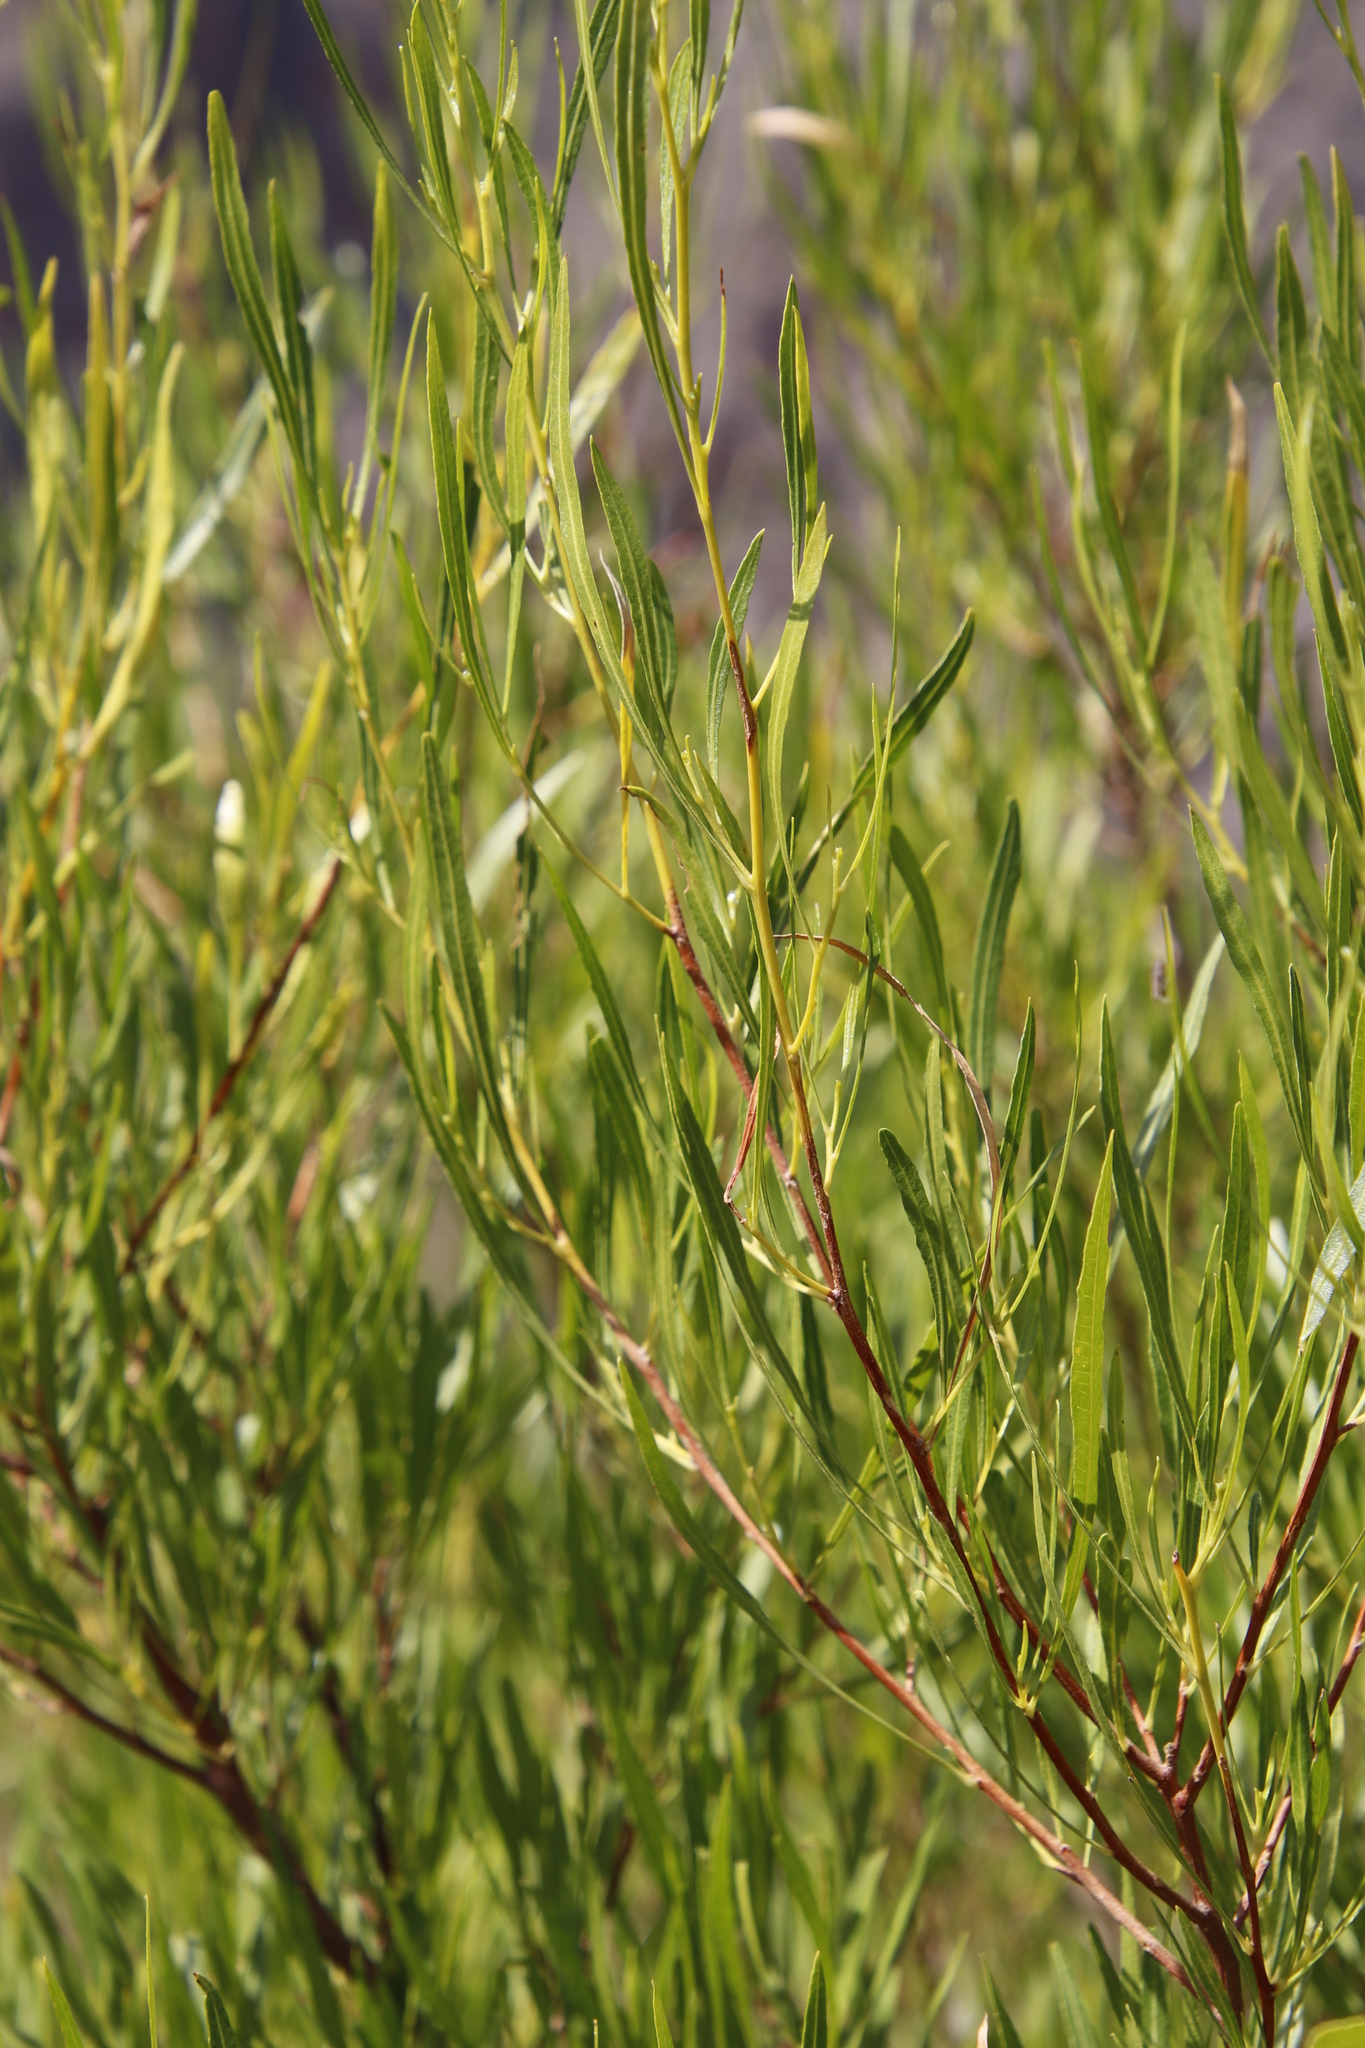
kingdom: Plantae
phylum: Tracheophyta
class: Magnoliopsida
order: Sapindales
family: Sapindaceae
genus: Dodonaea
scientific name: Dodonaea viscosa
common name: Hopbush
